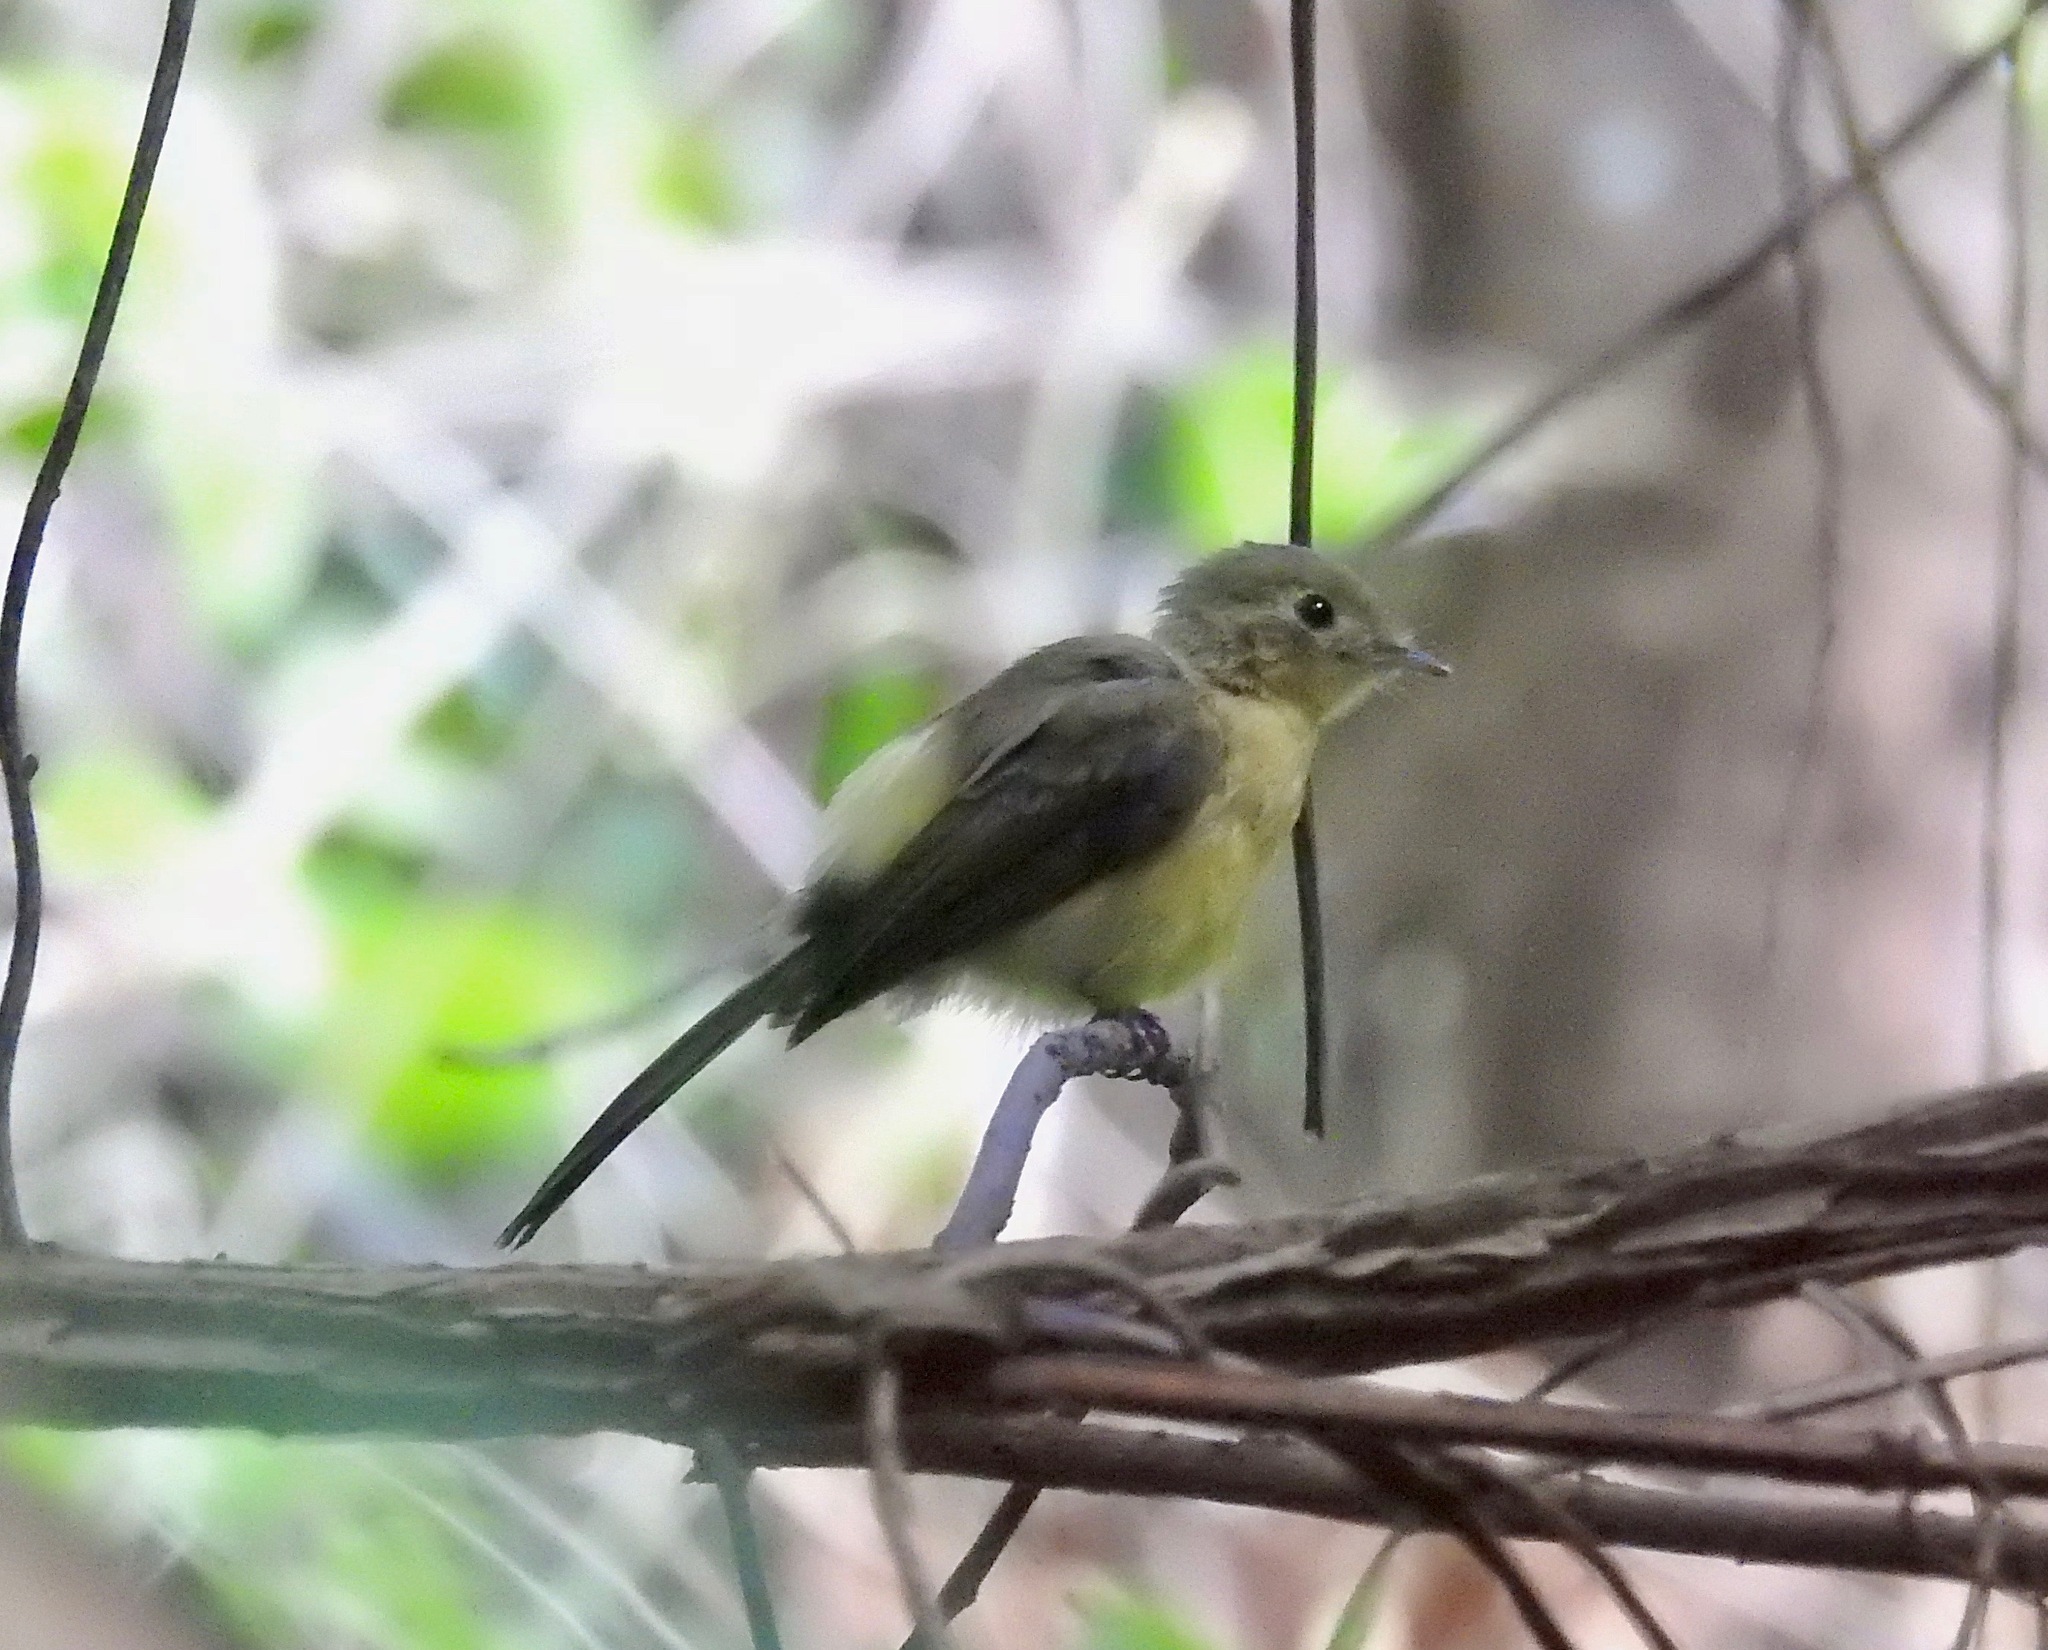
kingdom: Animalia
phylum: Chordata
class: Aves
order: Passeriformes
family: Tyrannidae
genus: Myiobius
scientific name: Myiobius atricaudus
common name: Black-tailed flycatcher
